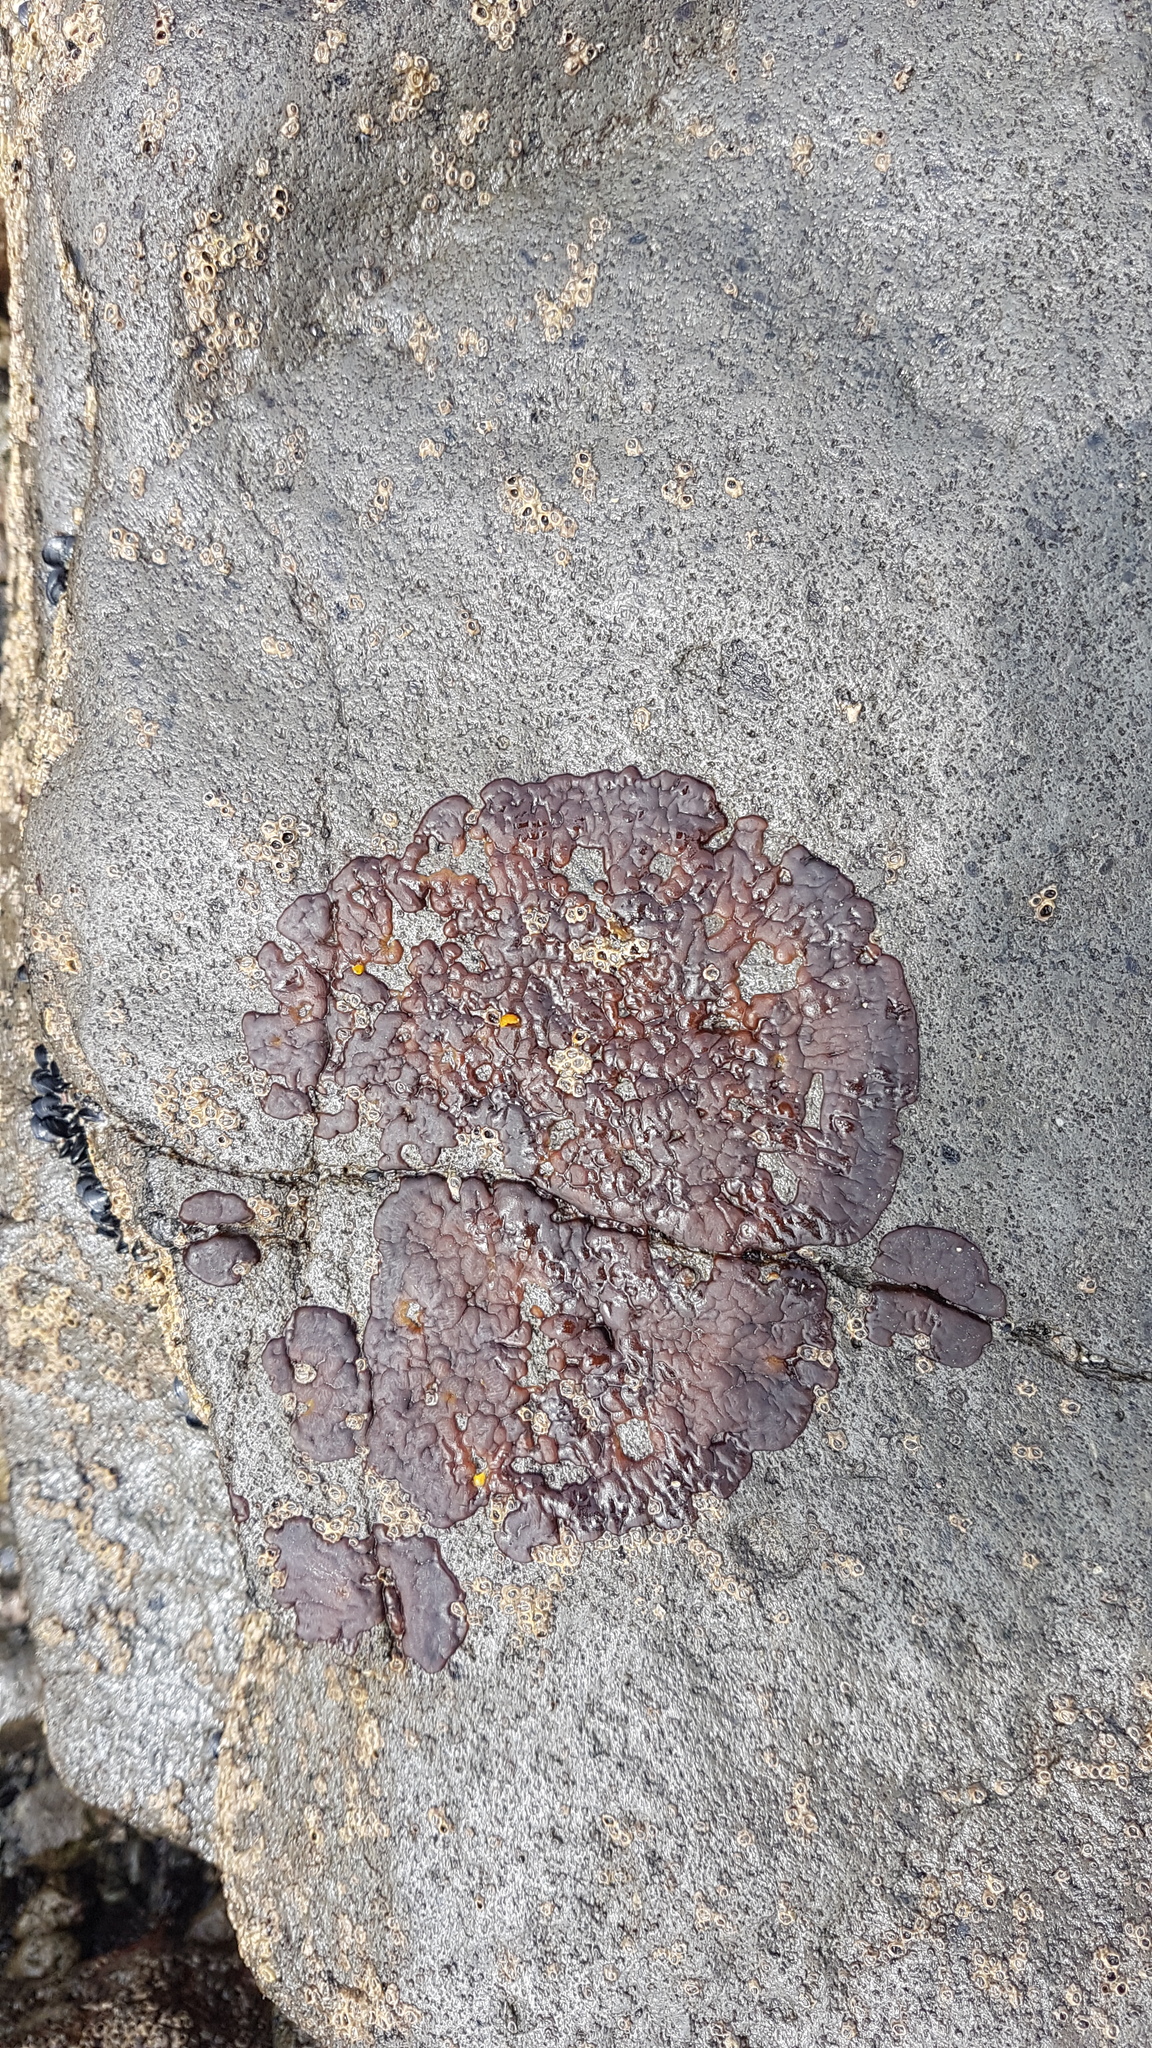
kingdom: Animalia
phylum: Arthropoda
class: Diplura
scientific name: Diplura
